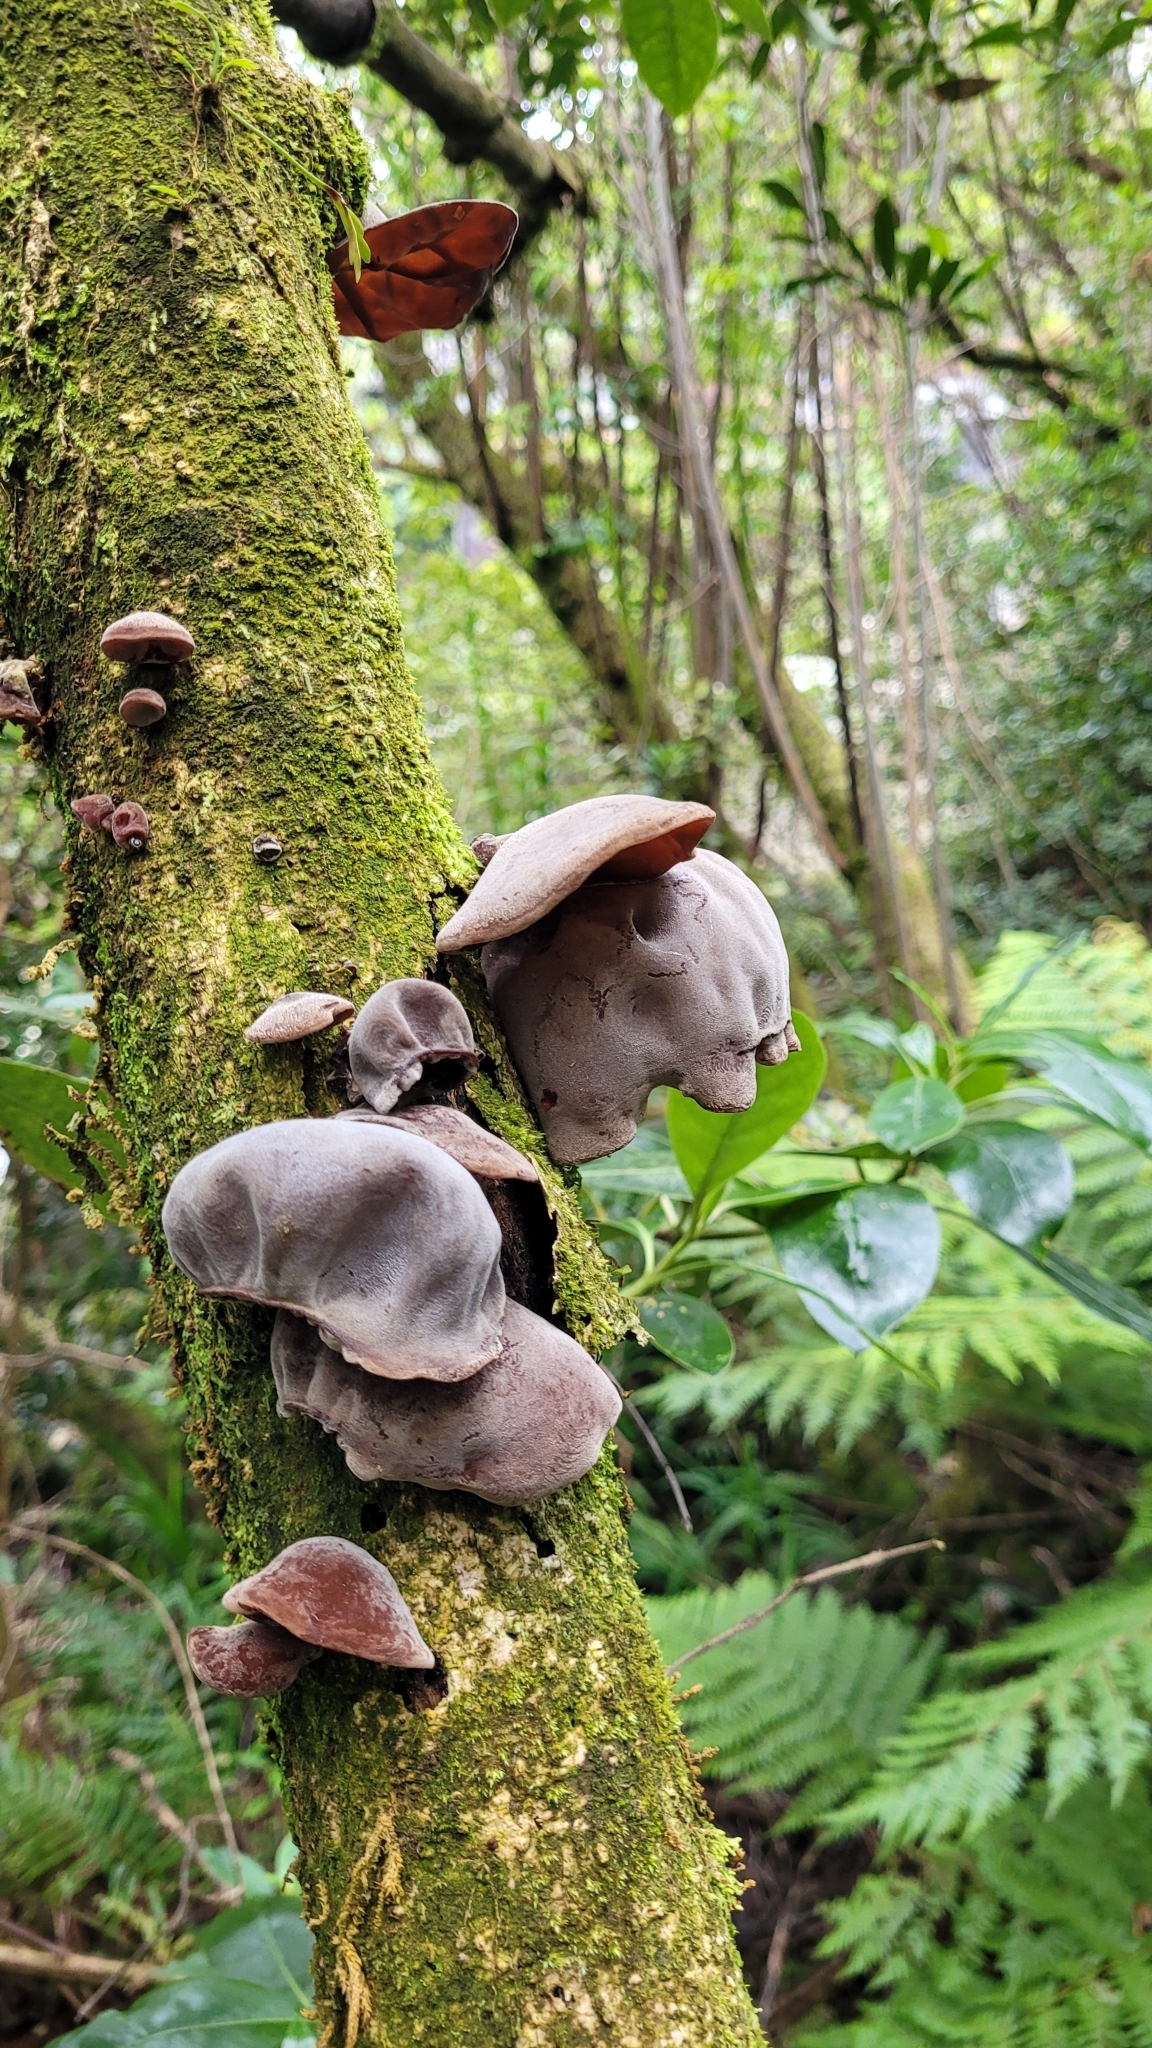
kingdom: Fungi
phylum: Basidiomycota
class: Agaricomycetes
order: Auriculariales
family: Auriculariaceae
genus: Auricularia
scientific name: Auricularia cornea
